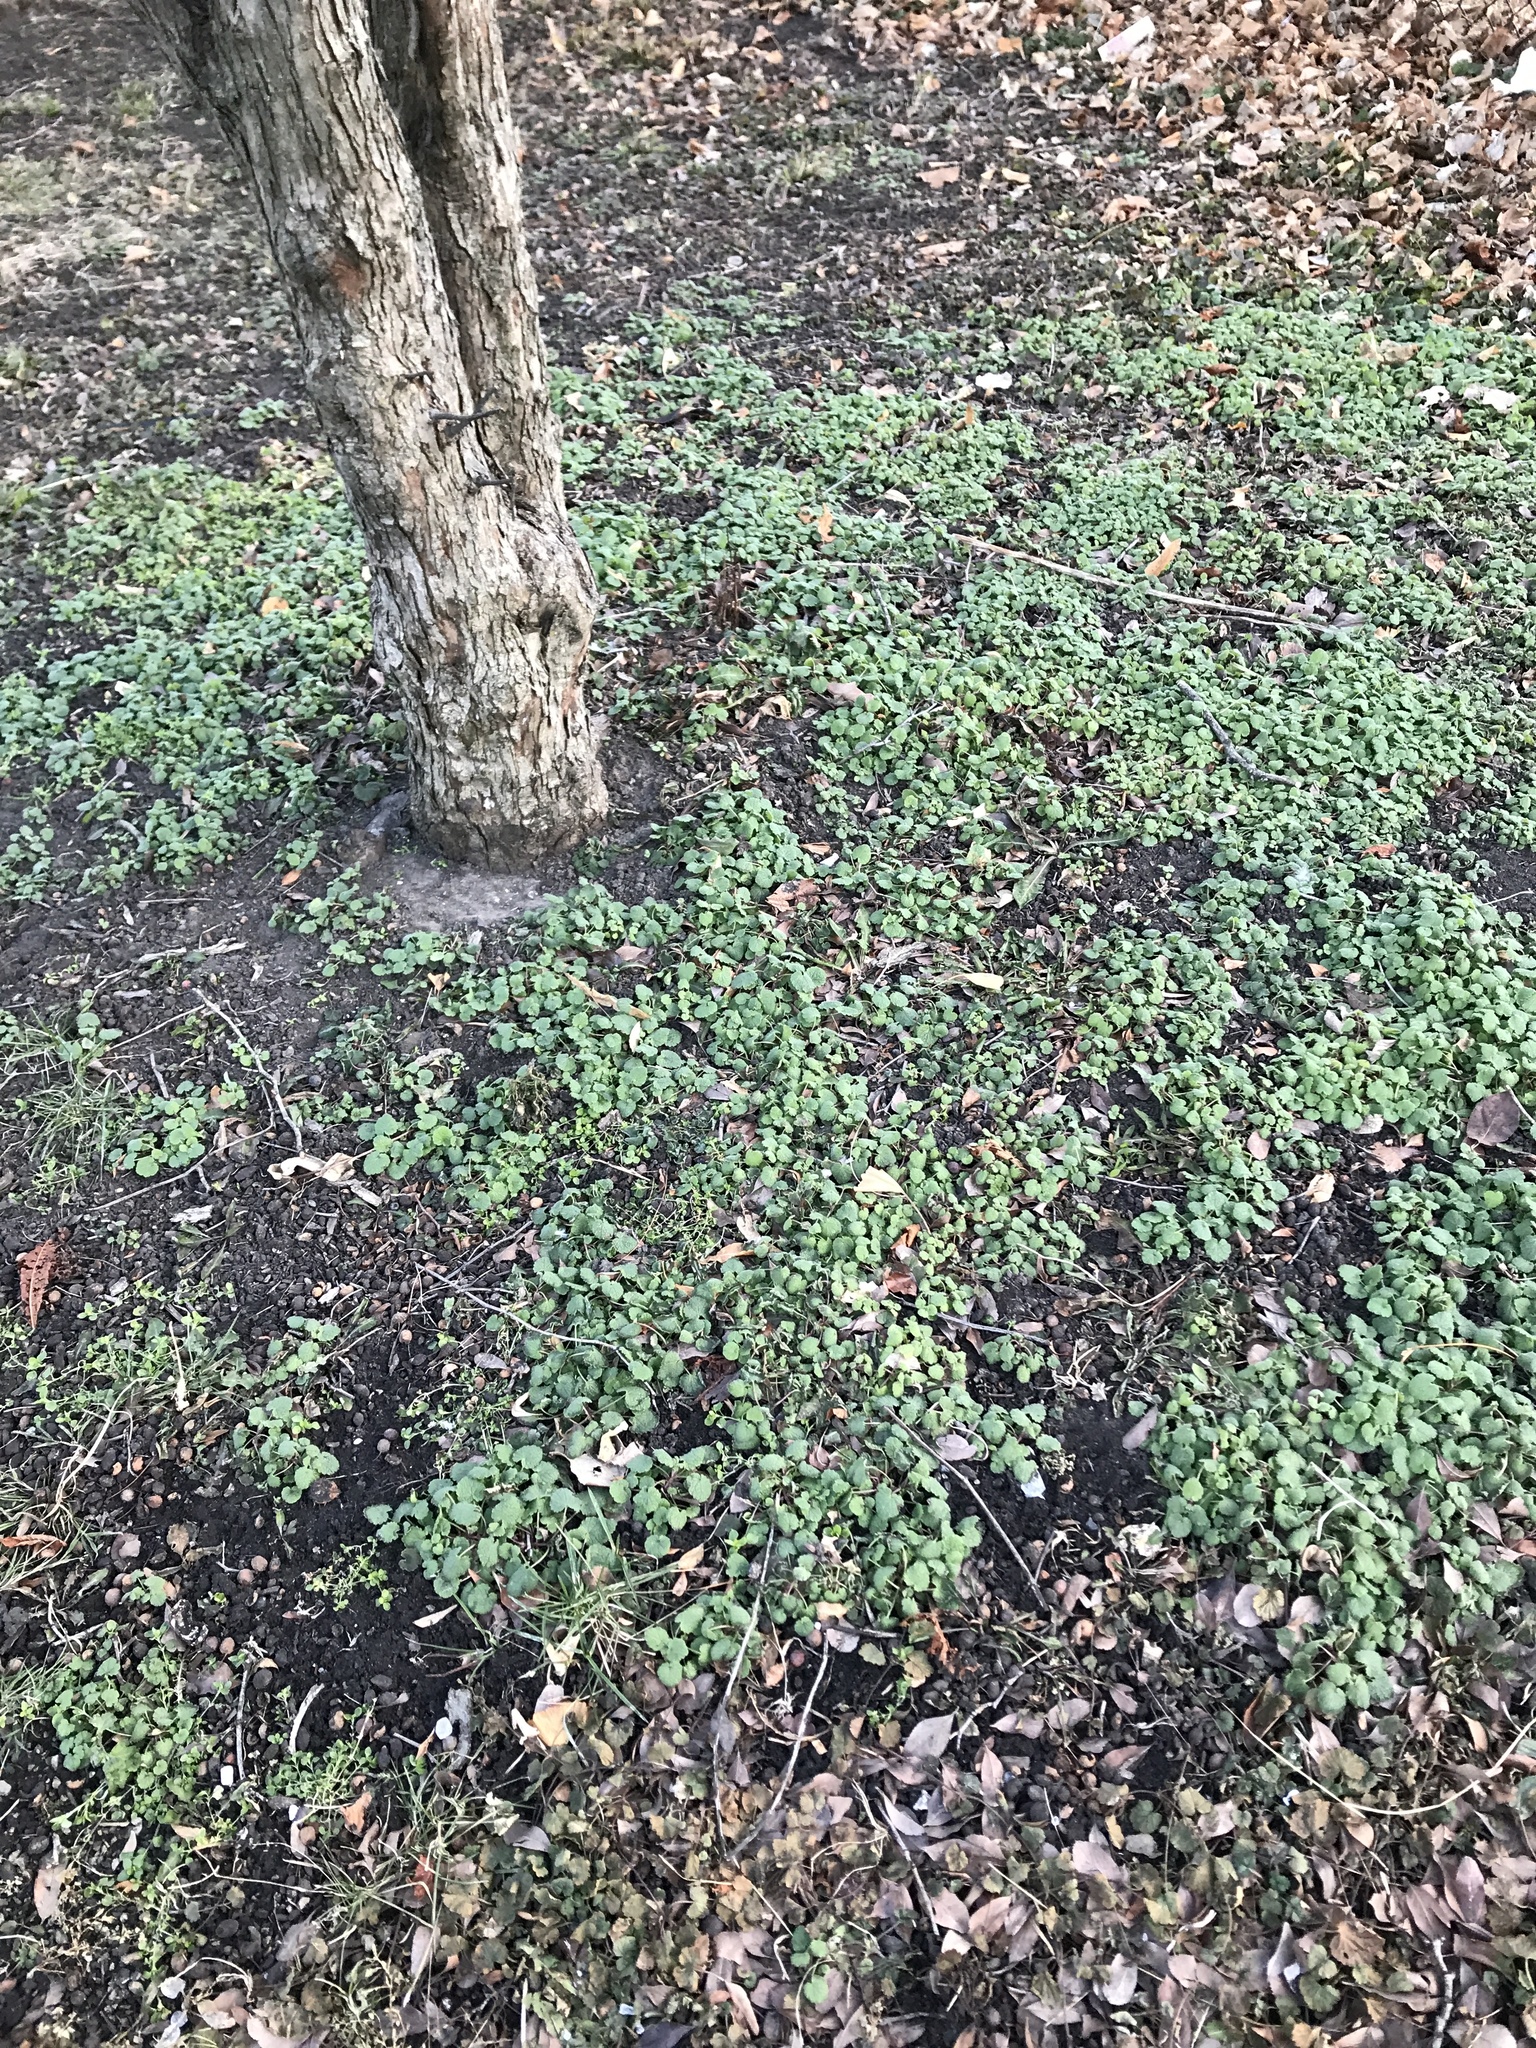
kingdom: Plantae
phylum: Tracheophyta
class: Magnoliopsida
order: Lamiales
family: Lamiaceae
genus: Lamium
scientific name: Lamium purpureum
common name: Red dead-nettle
